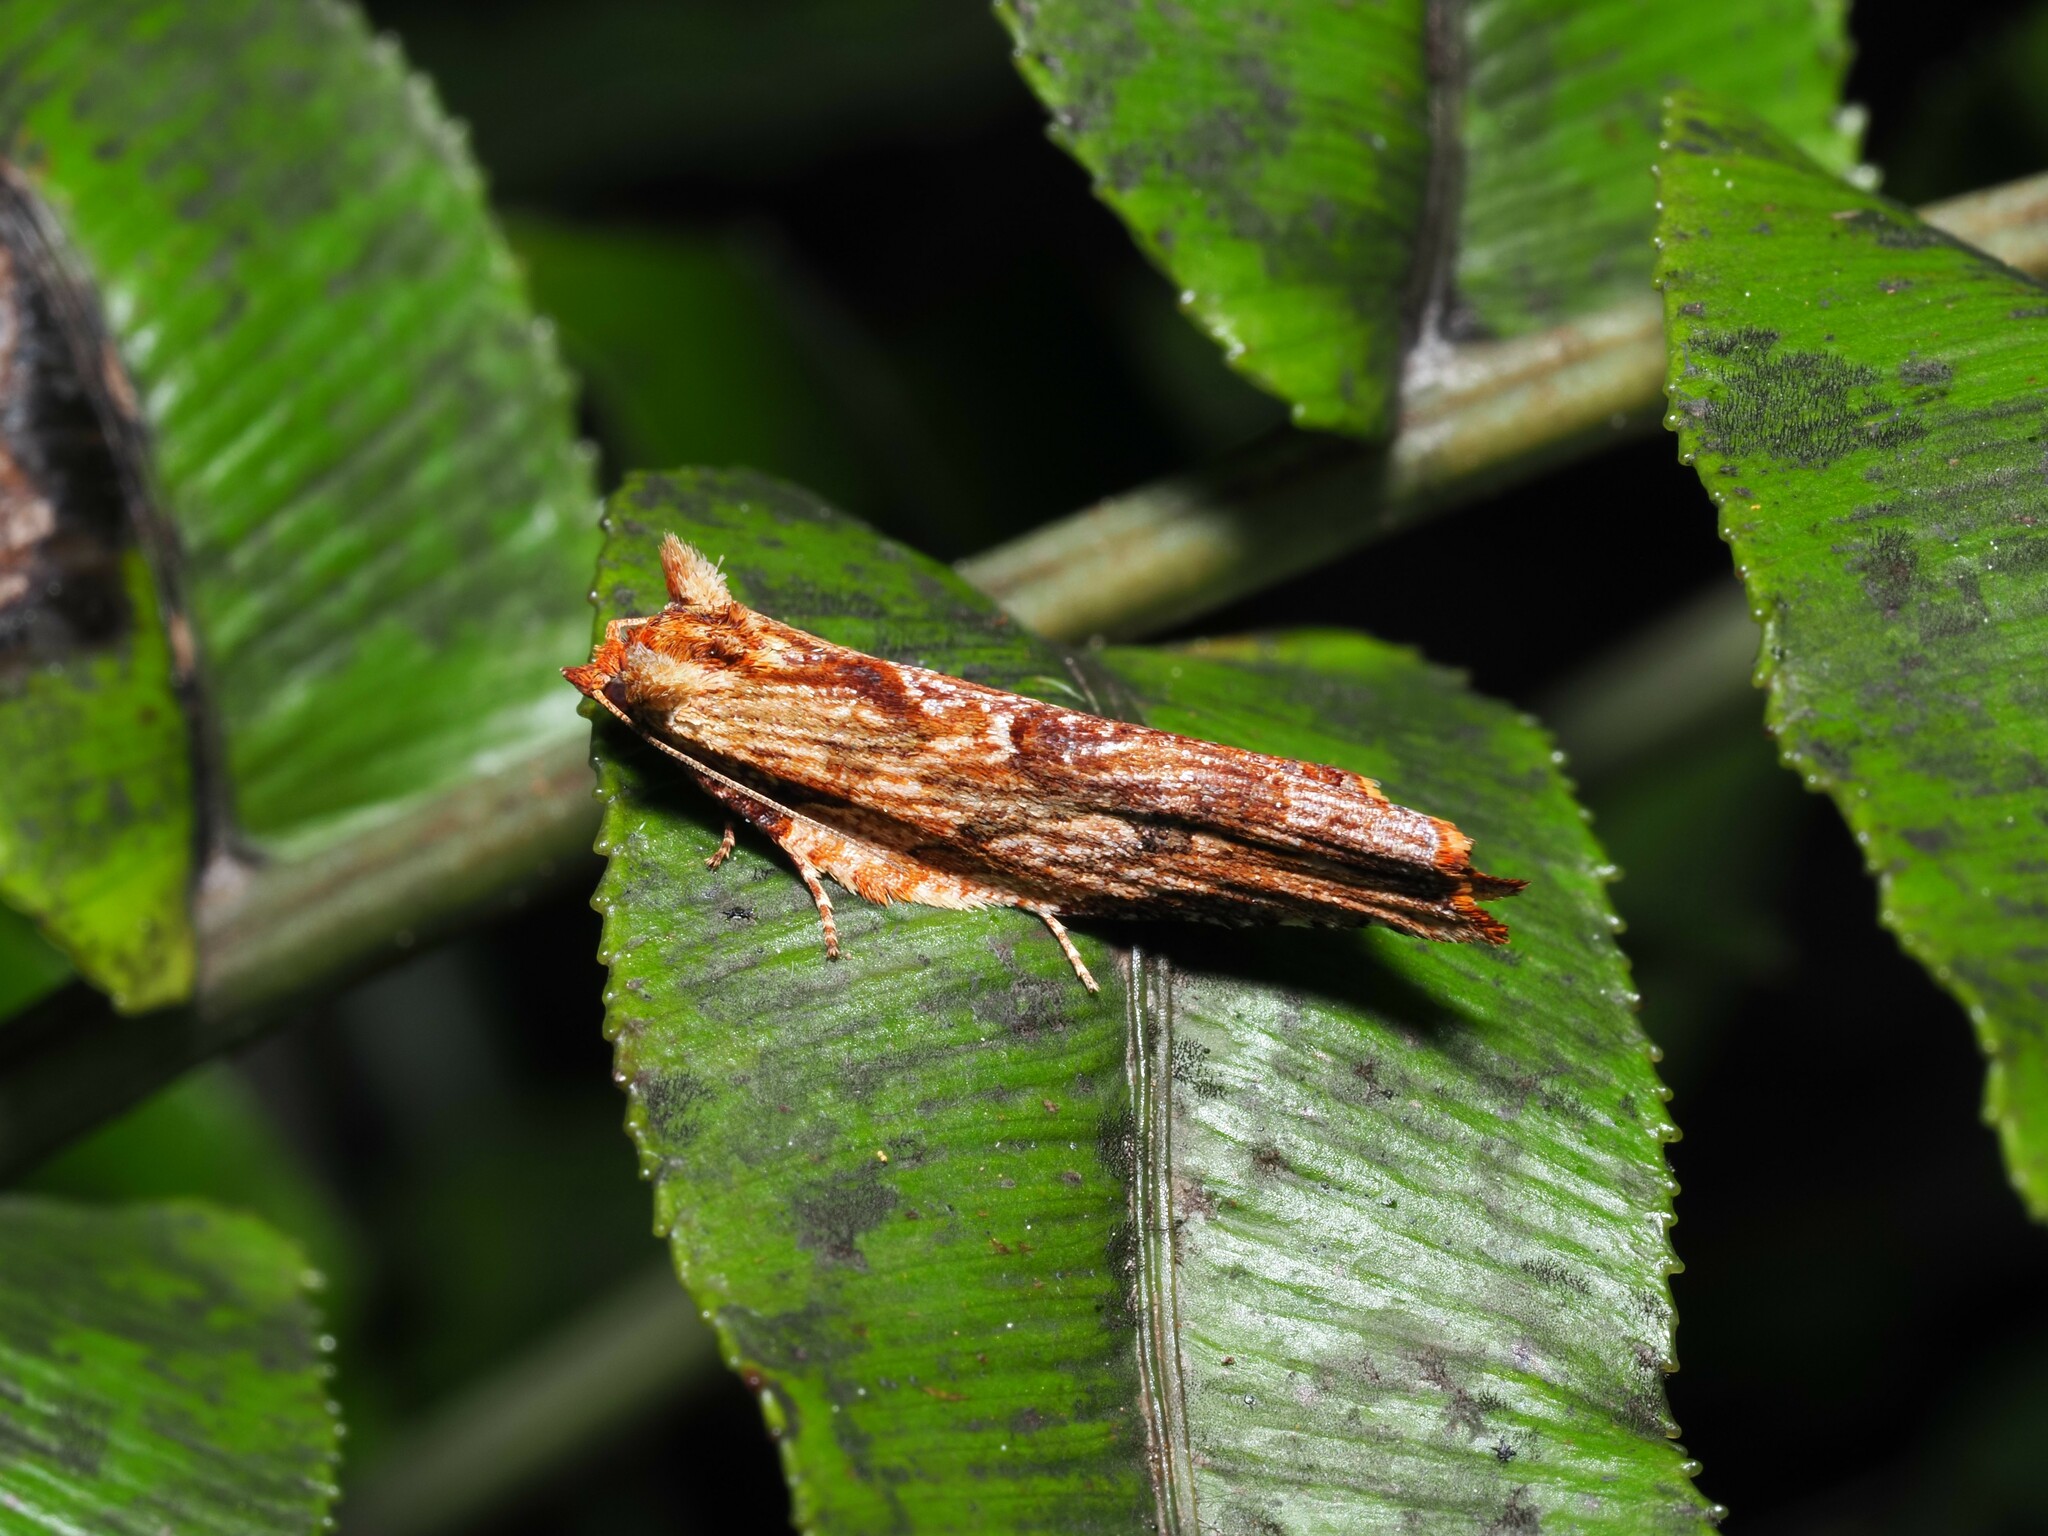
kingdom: Animalia
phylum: Arthropoda
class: Insecta
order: Lepidoptera
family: Tortricidae
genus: Epalxiphora
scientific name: Epalxiphora axenana
